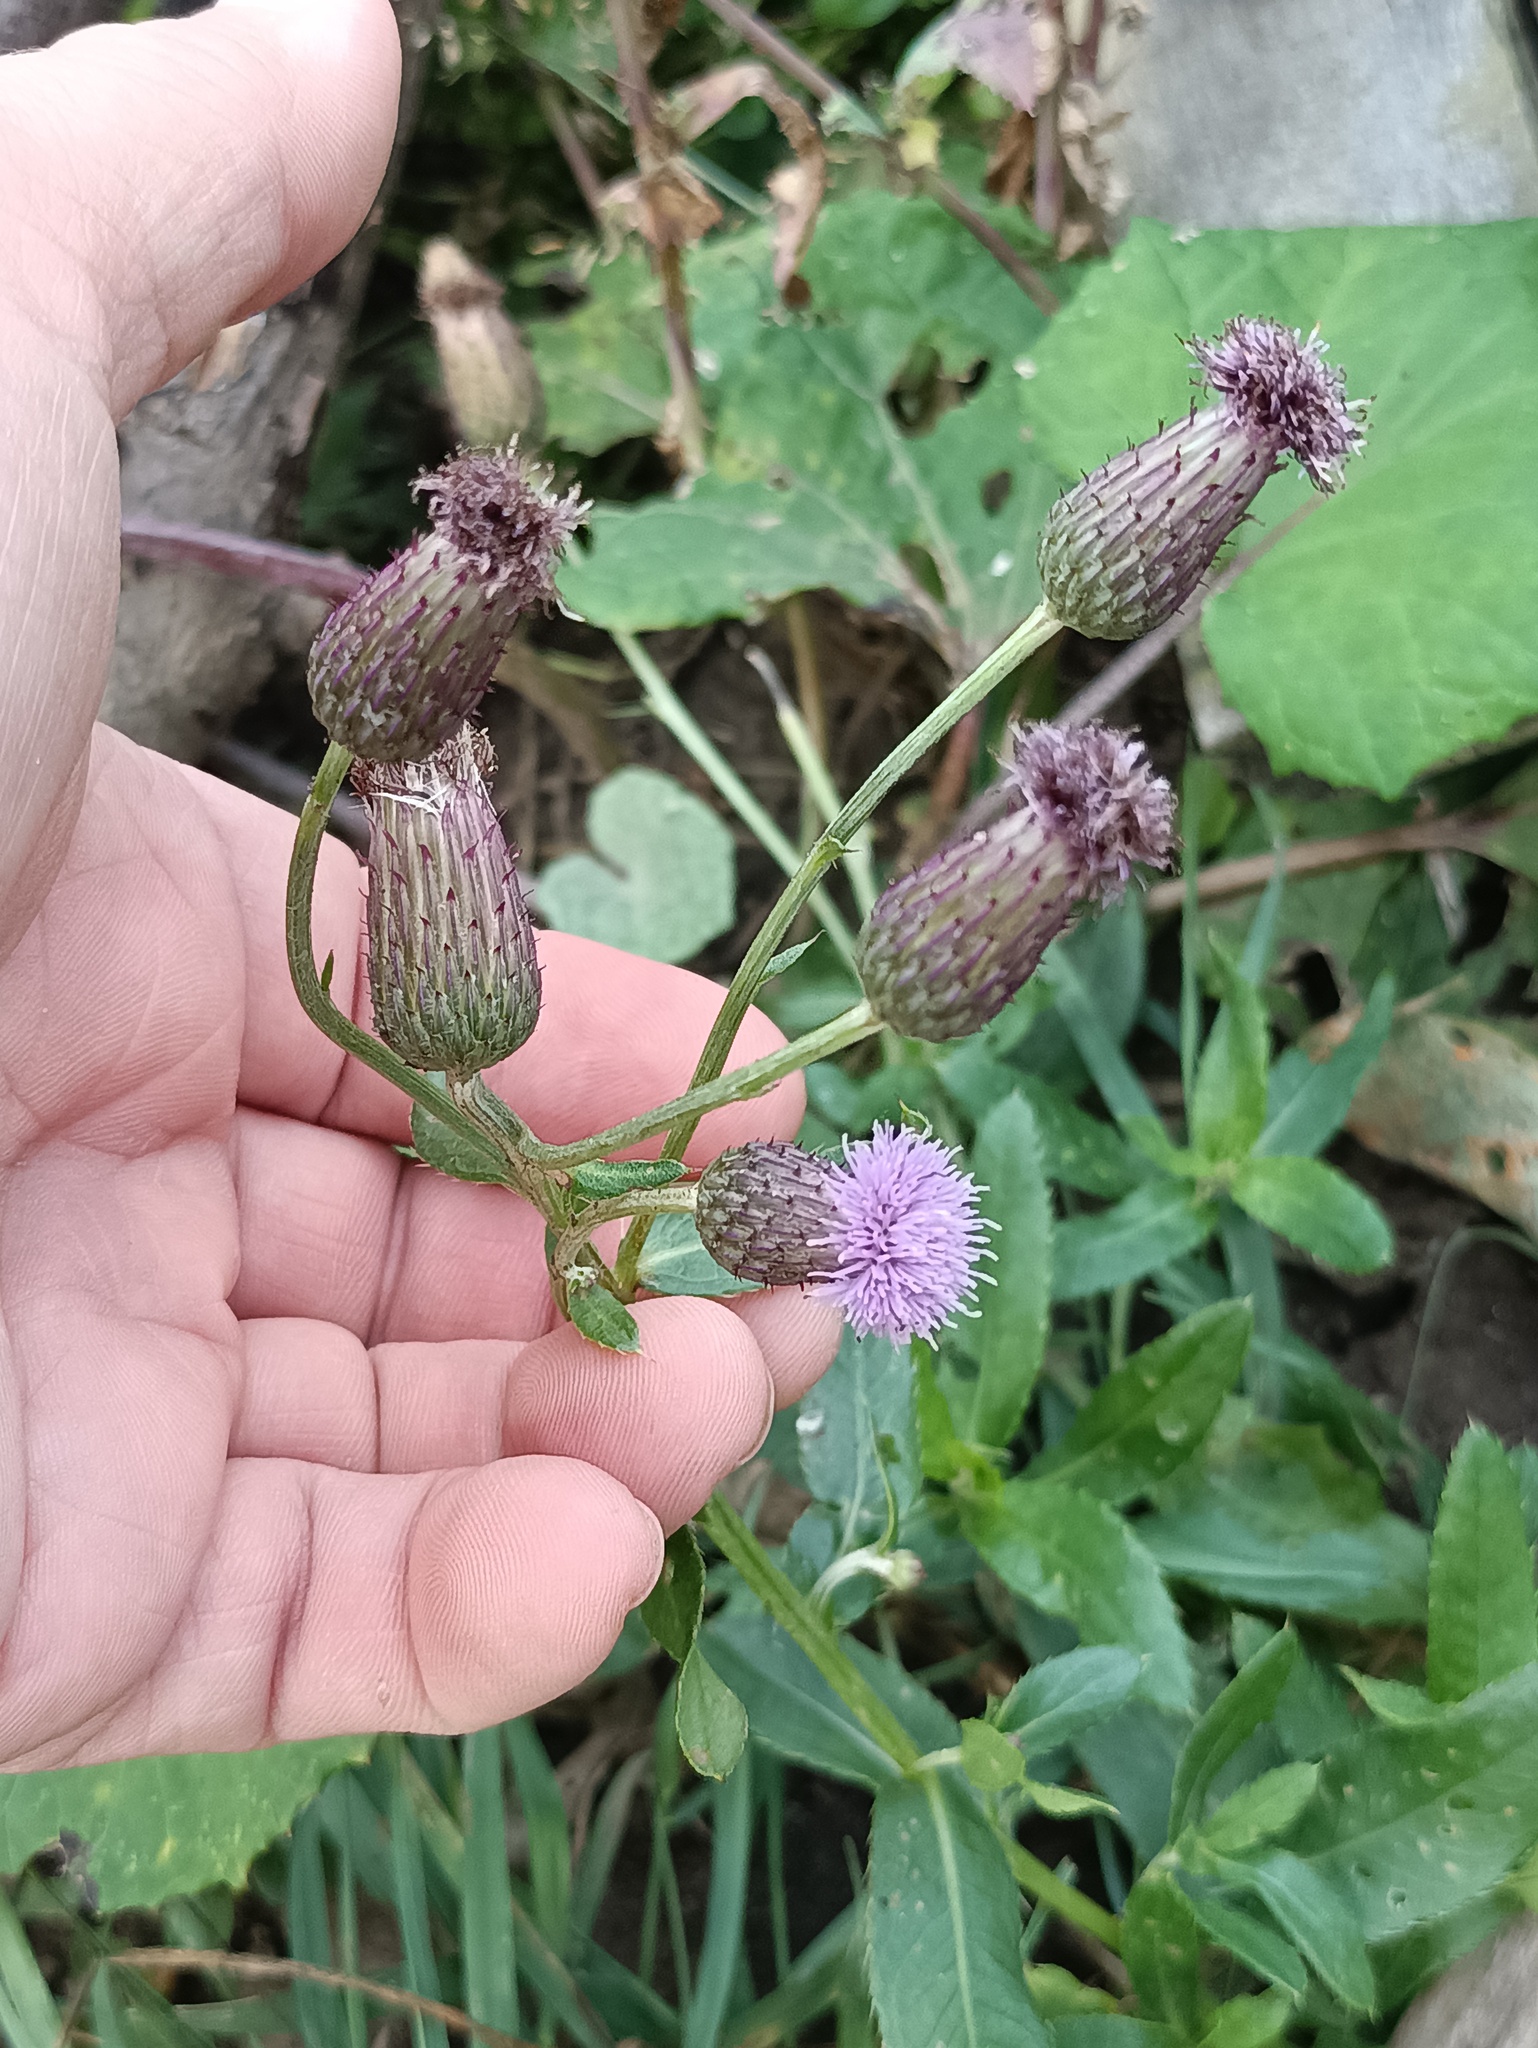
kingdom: Plantae
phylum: Tracheophyta
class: Magnoliopsida
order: Asterales
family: Asteraceae
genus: Cirsium
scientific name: Cirsium arvense
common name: Creeping thistle
